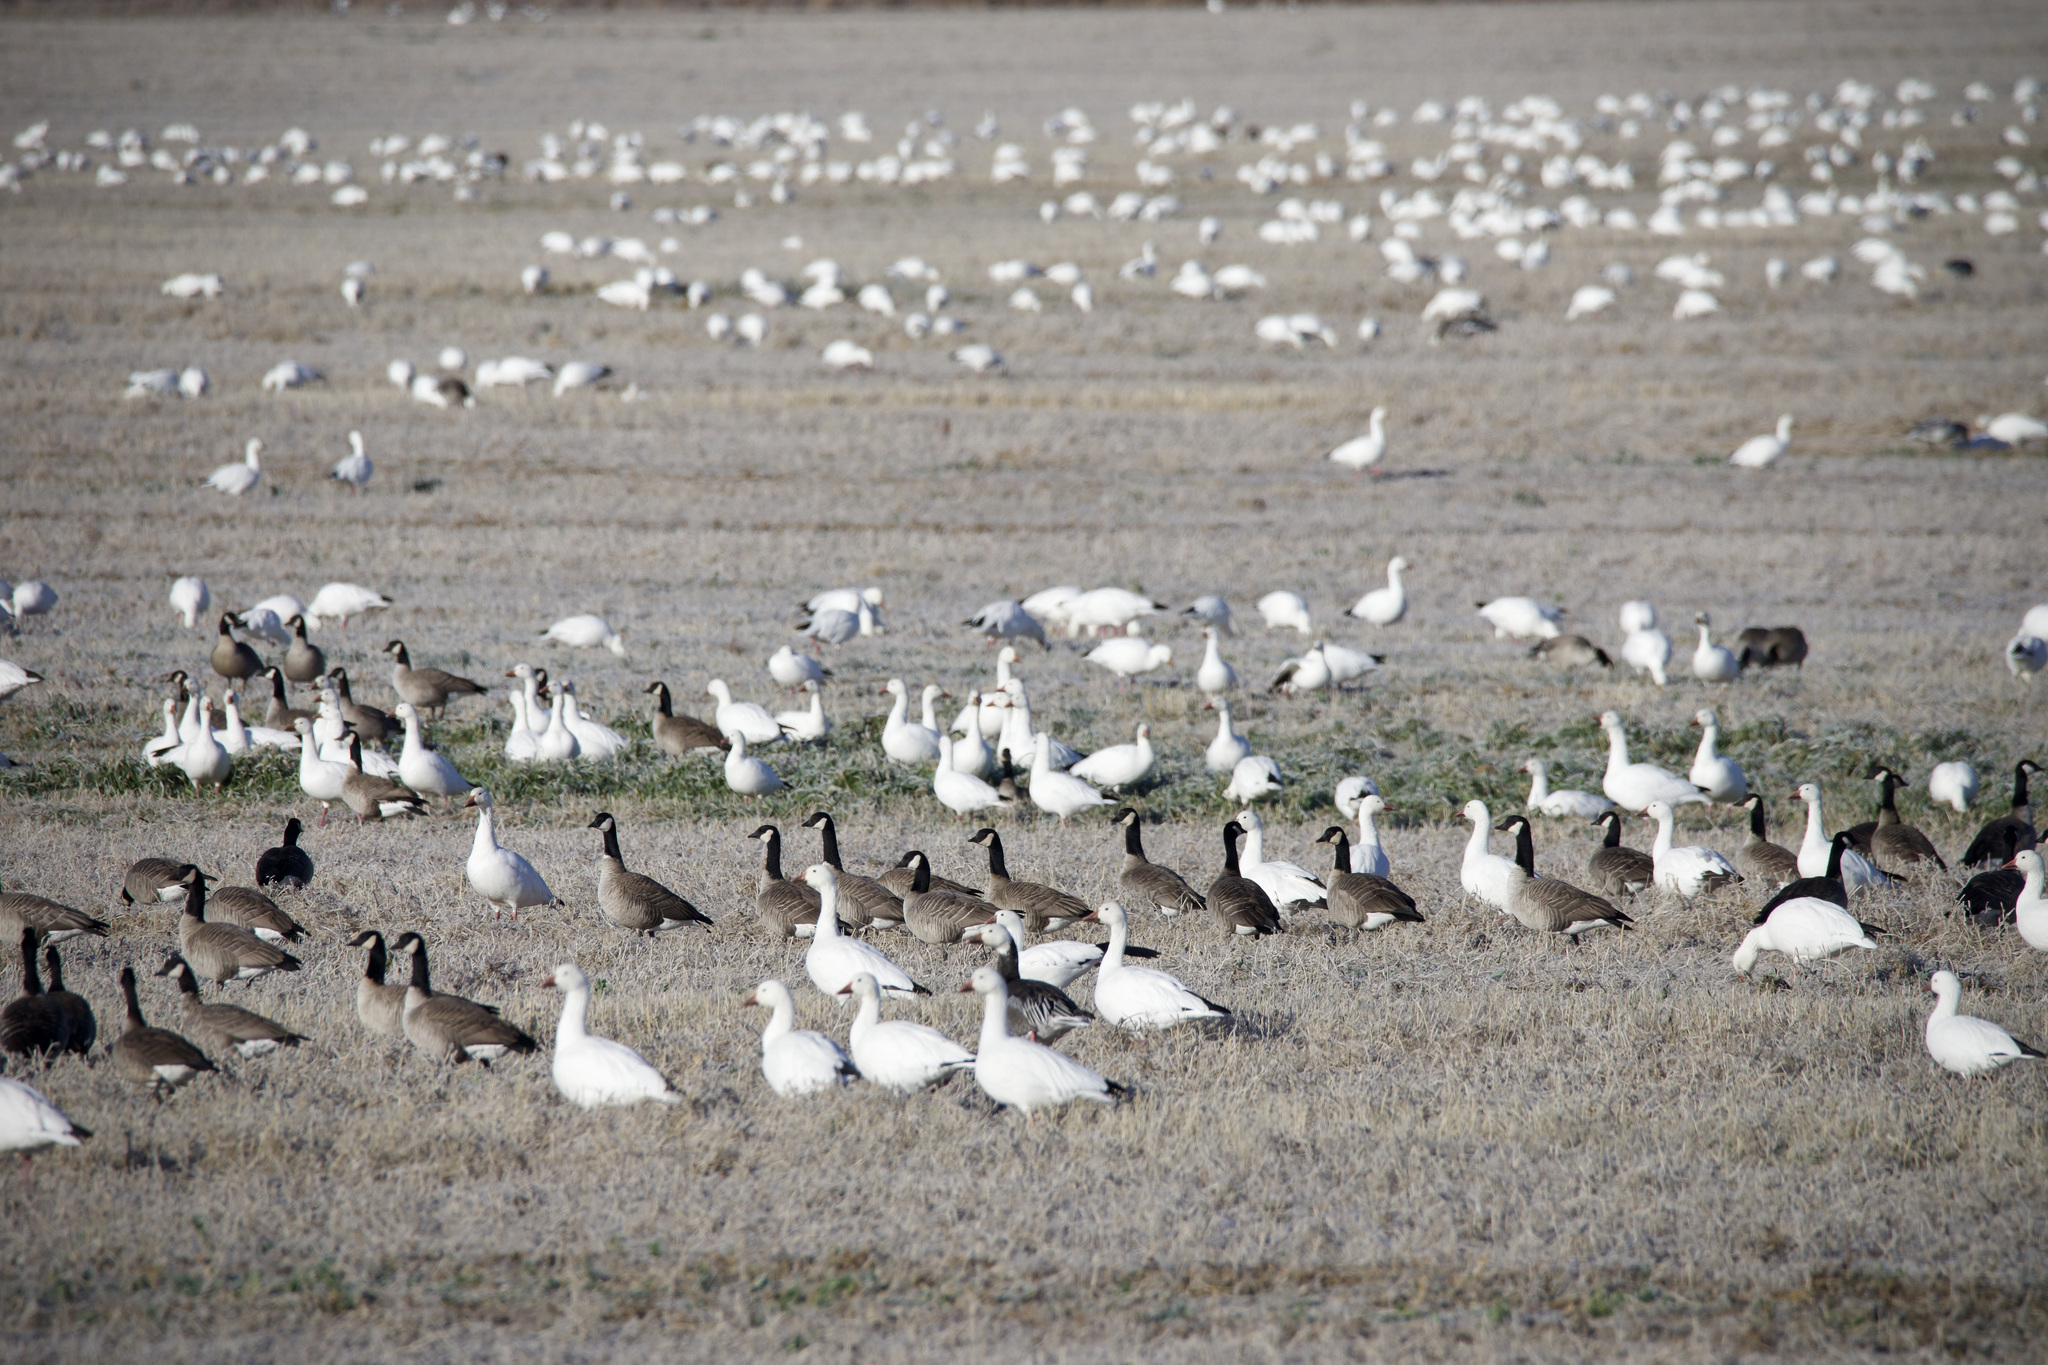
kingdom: Animalia
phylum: Chordata
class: Aves
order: Anseriformes
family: Anatidae
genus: Anser
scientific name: Anser caerulescens
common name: Snow goose
